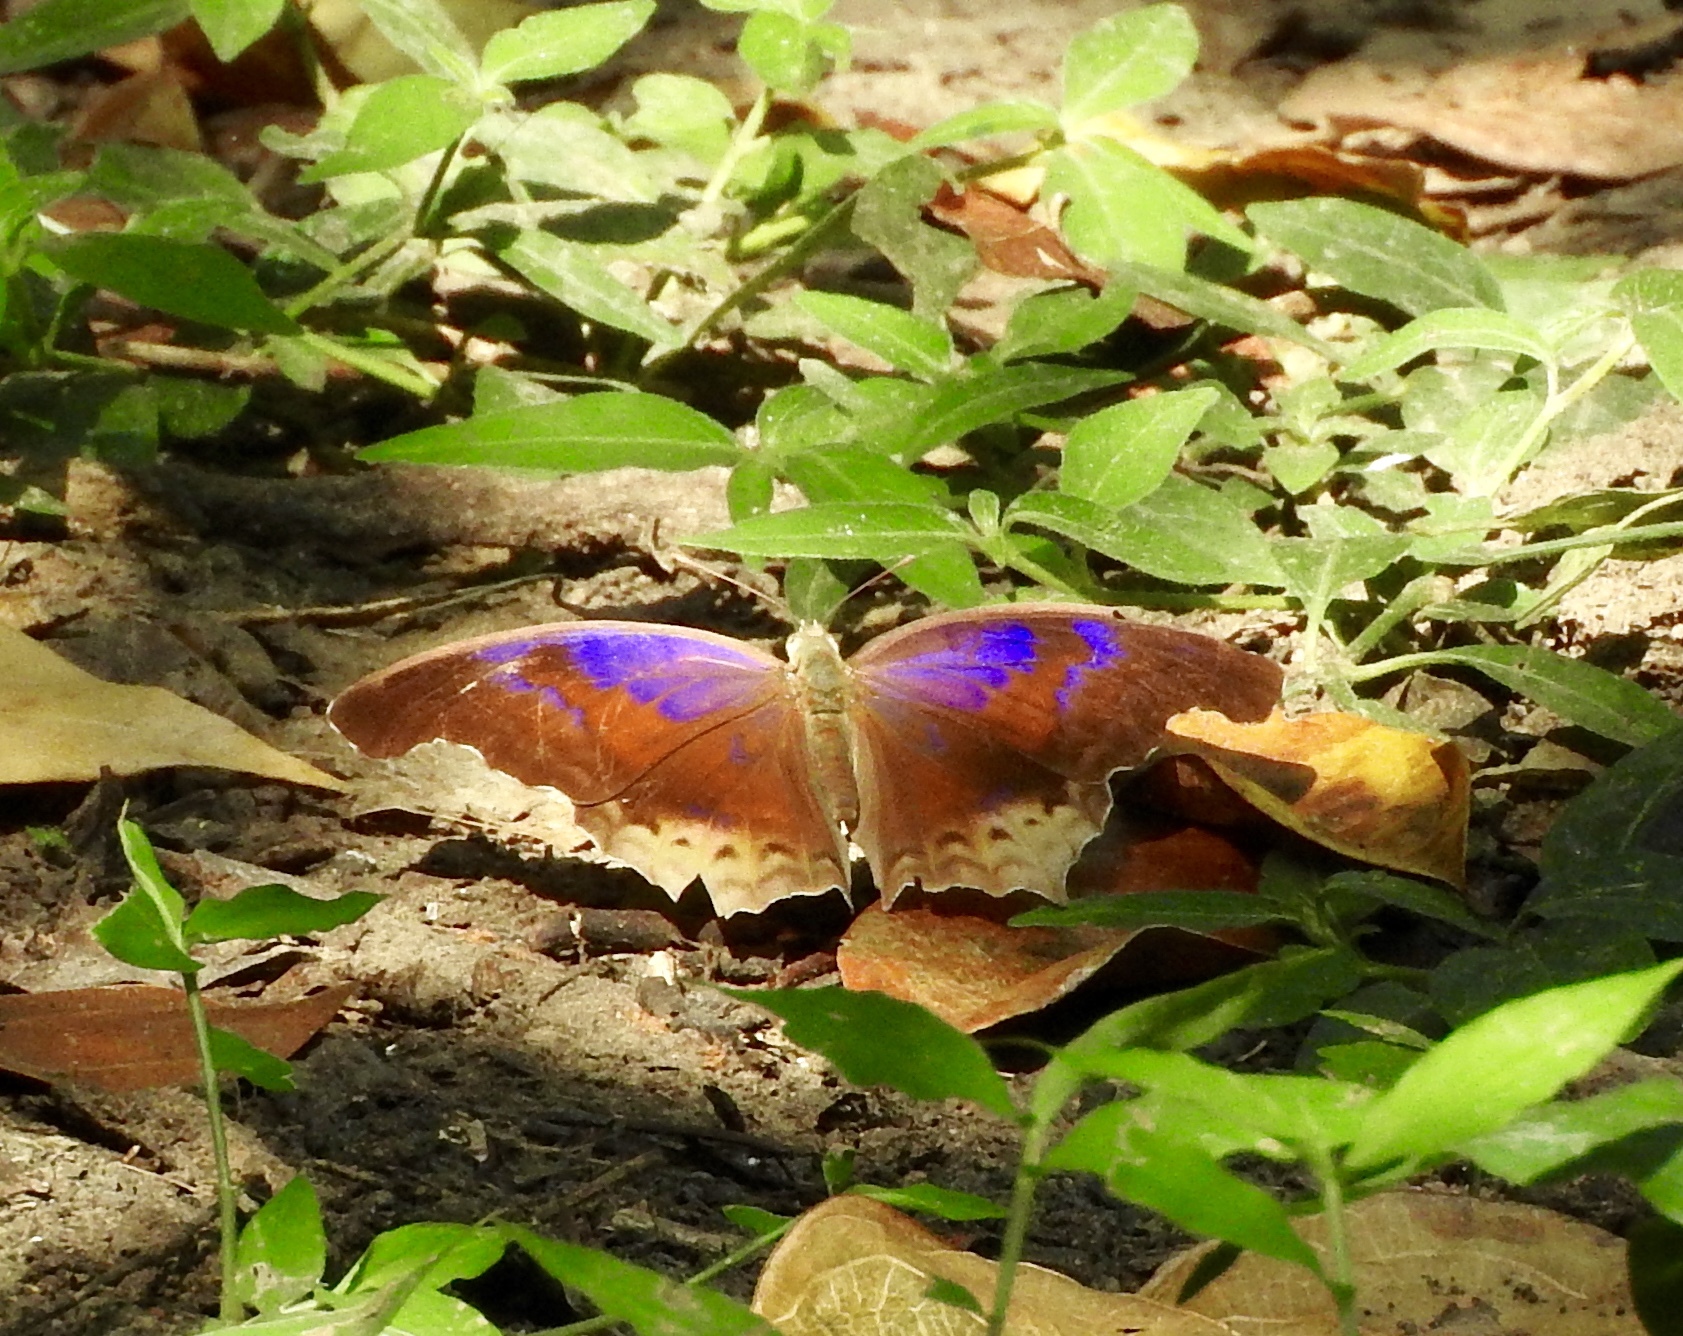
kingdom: Animalia
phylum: Arthropoda
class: Insecta
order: Lepidoptera
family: Nymphalidae
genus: Terinos
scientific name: Terinos atlita
